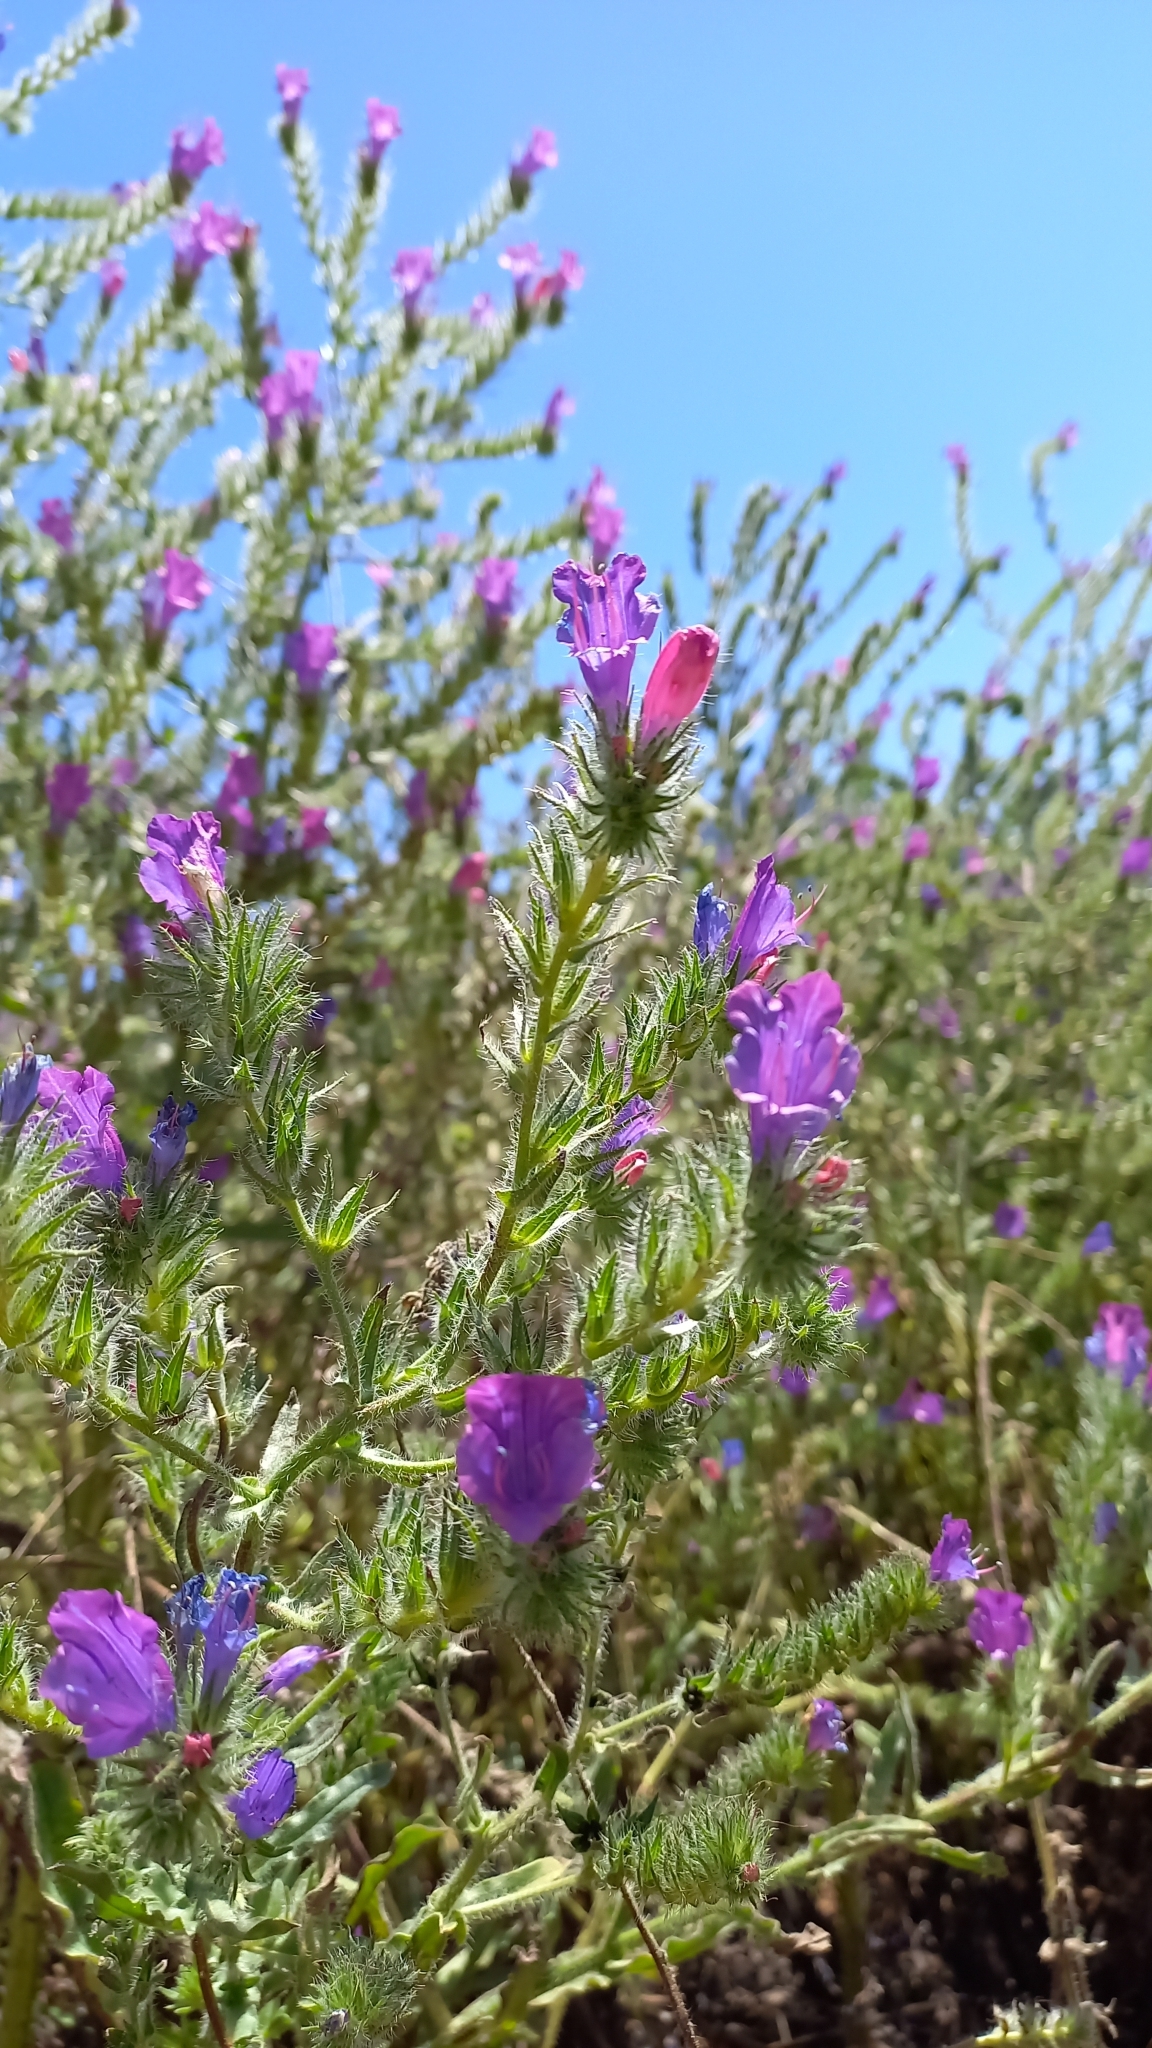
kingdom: Plantae
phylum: Tracheophyta
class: Magnoliopsida
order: Boraginales
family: Boraginaceae
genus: Echium
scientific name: Echium plantagineum
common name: Purple viper's-bugloss
